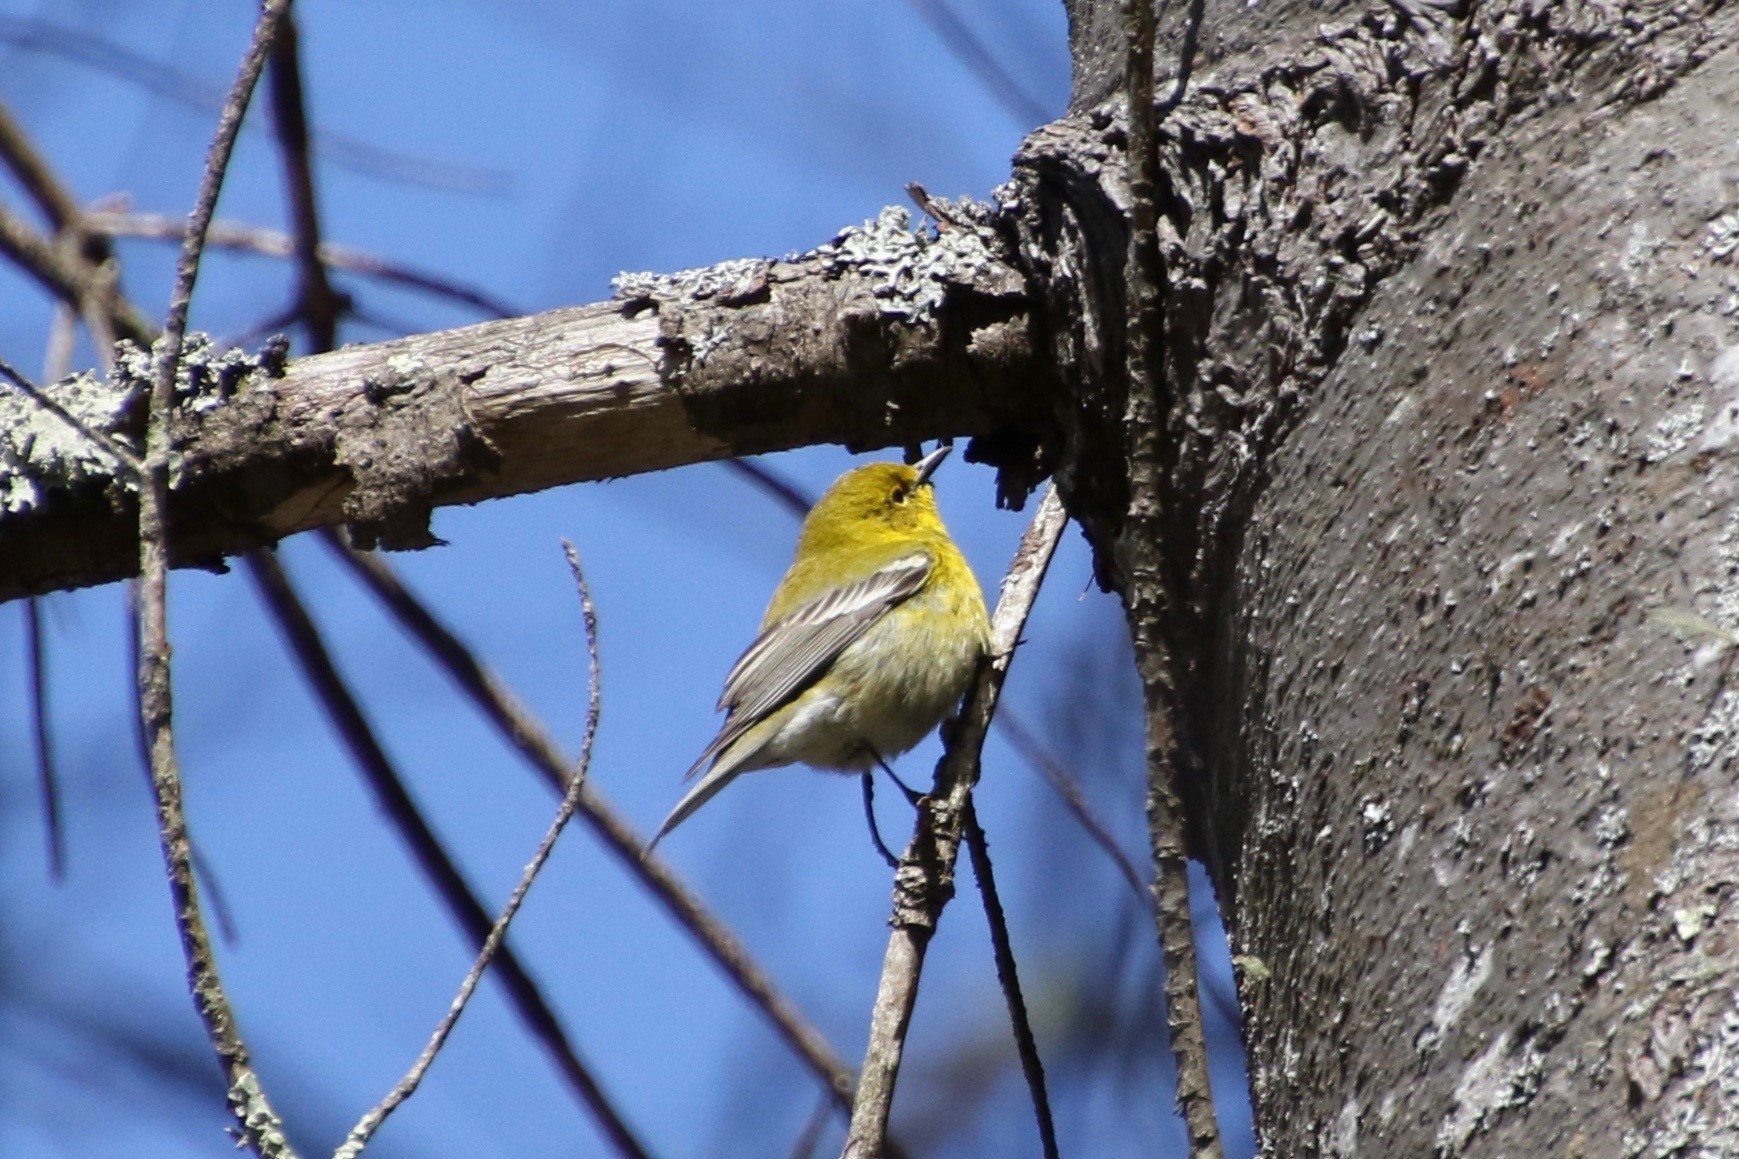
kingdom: Animalia
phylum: Chordata
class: Aves
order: Passeriformes
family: Parulidae
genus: Setophaga
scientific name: Setophaga pinus
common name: Pine warbler
